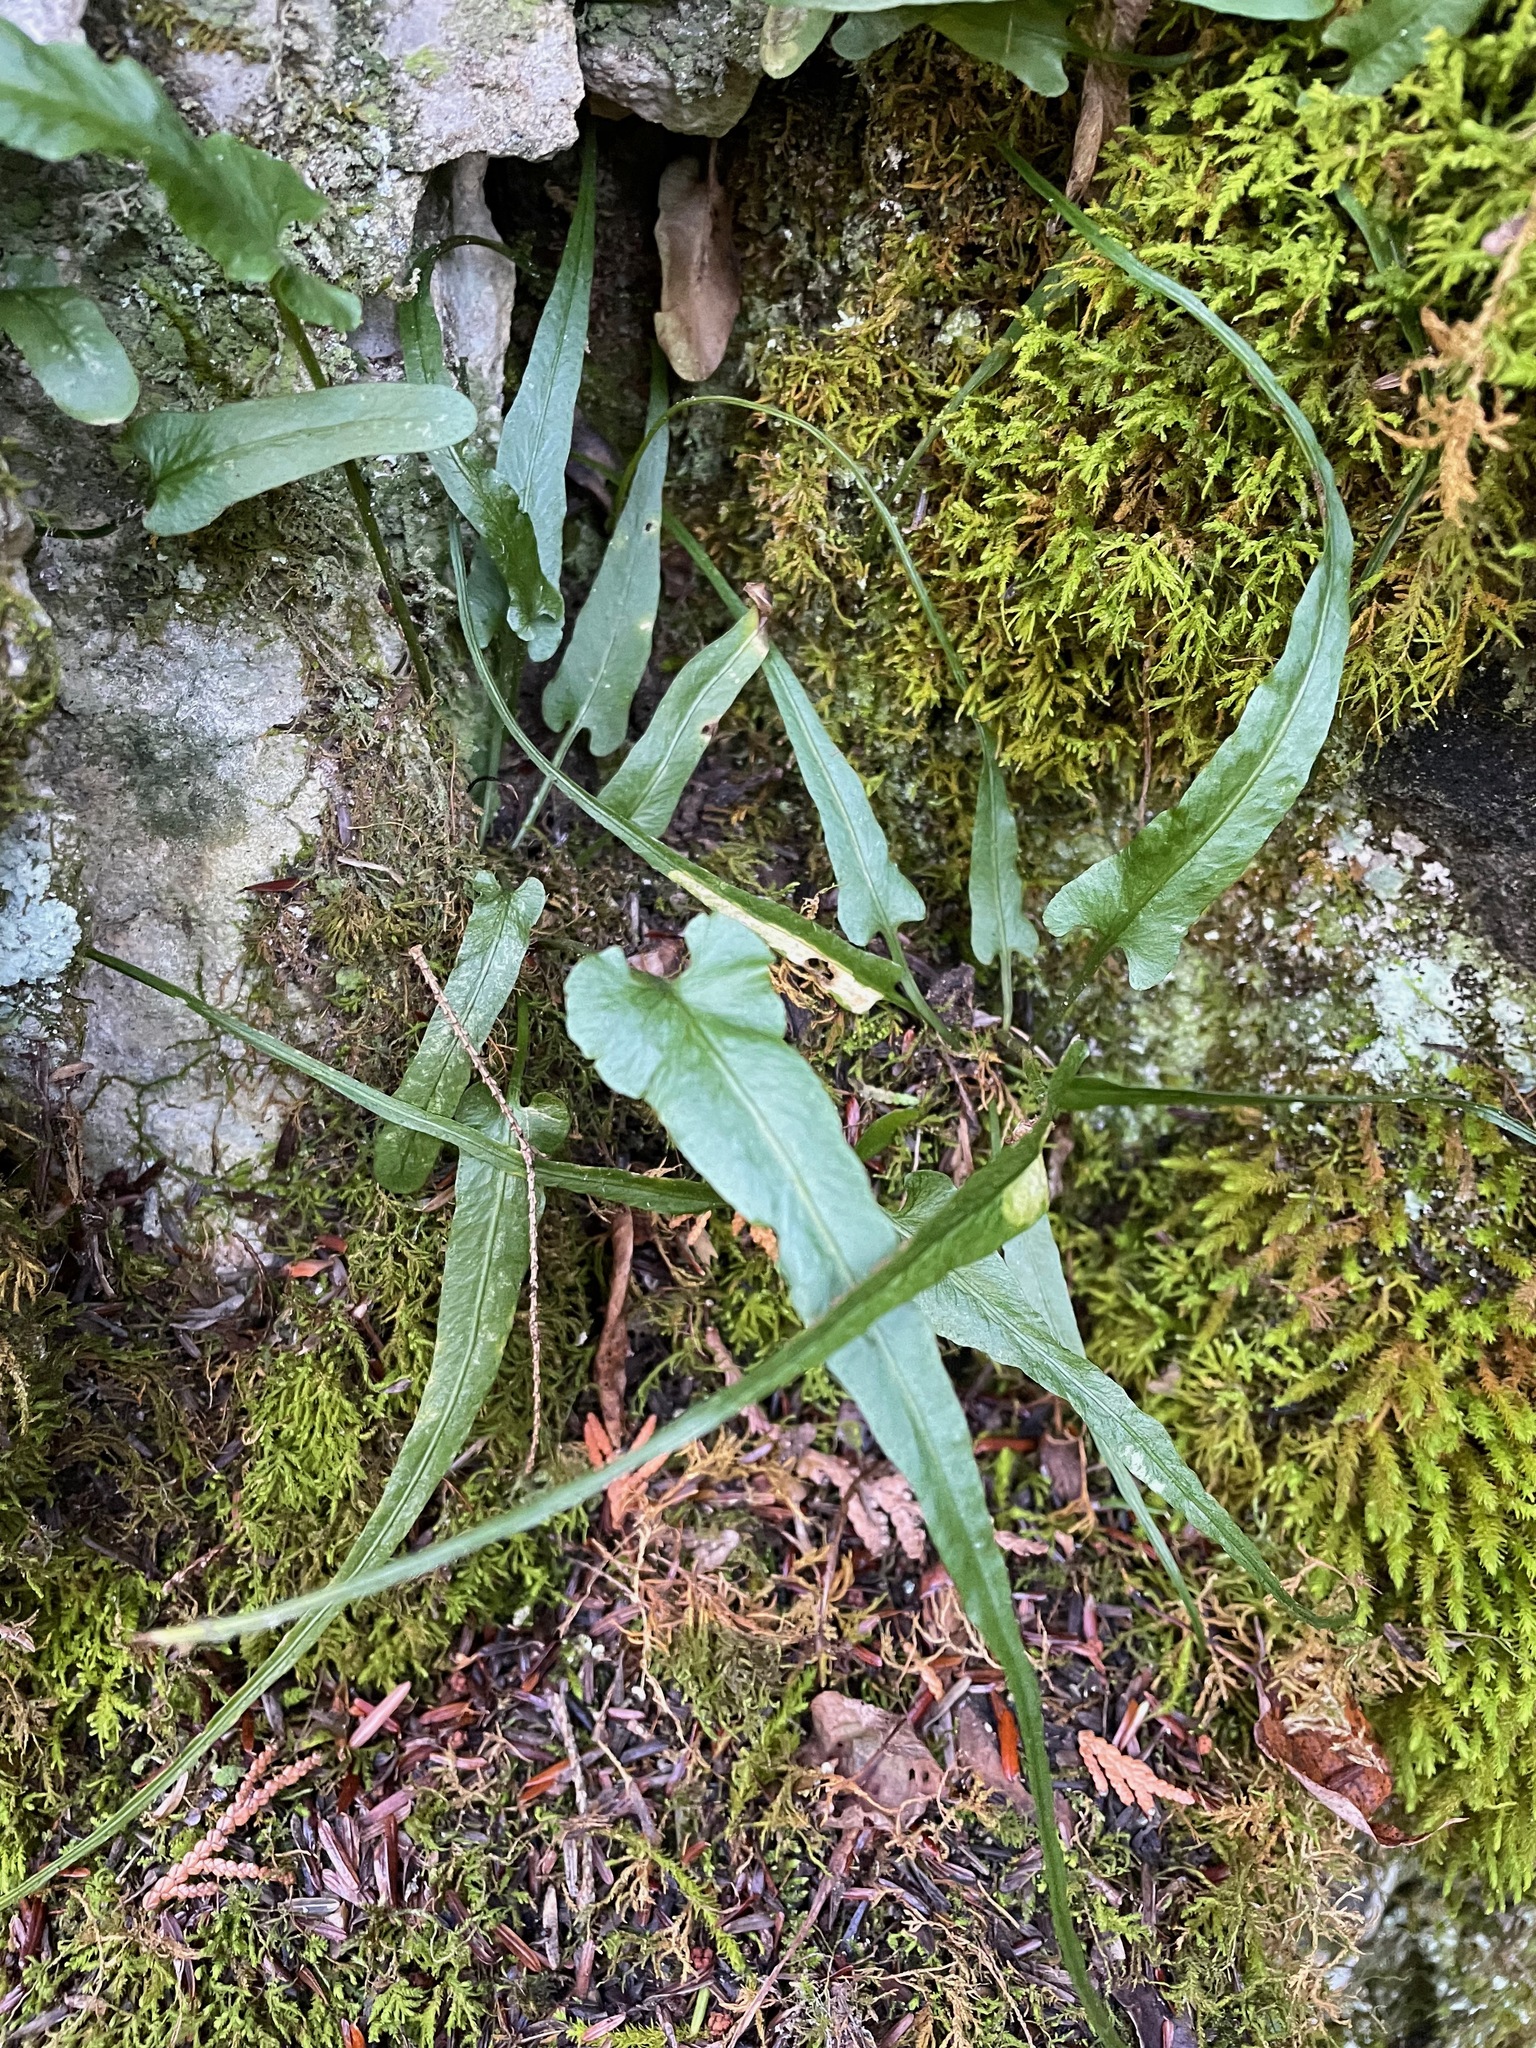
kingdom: Plantae
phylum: Tracheophyta
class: Polypodiopsida
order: Polypodiales
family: Aspleniaceae
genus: Asplenium
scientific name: Asplenium rhizophyllum
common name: Walking fern
